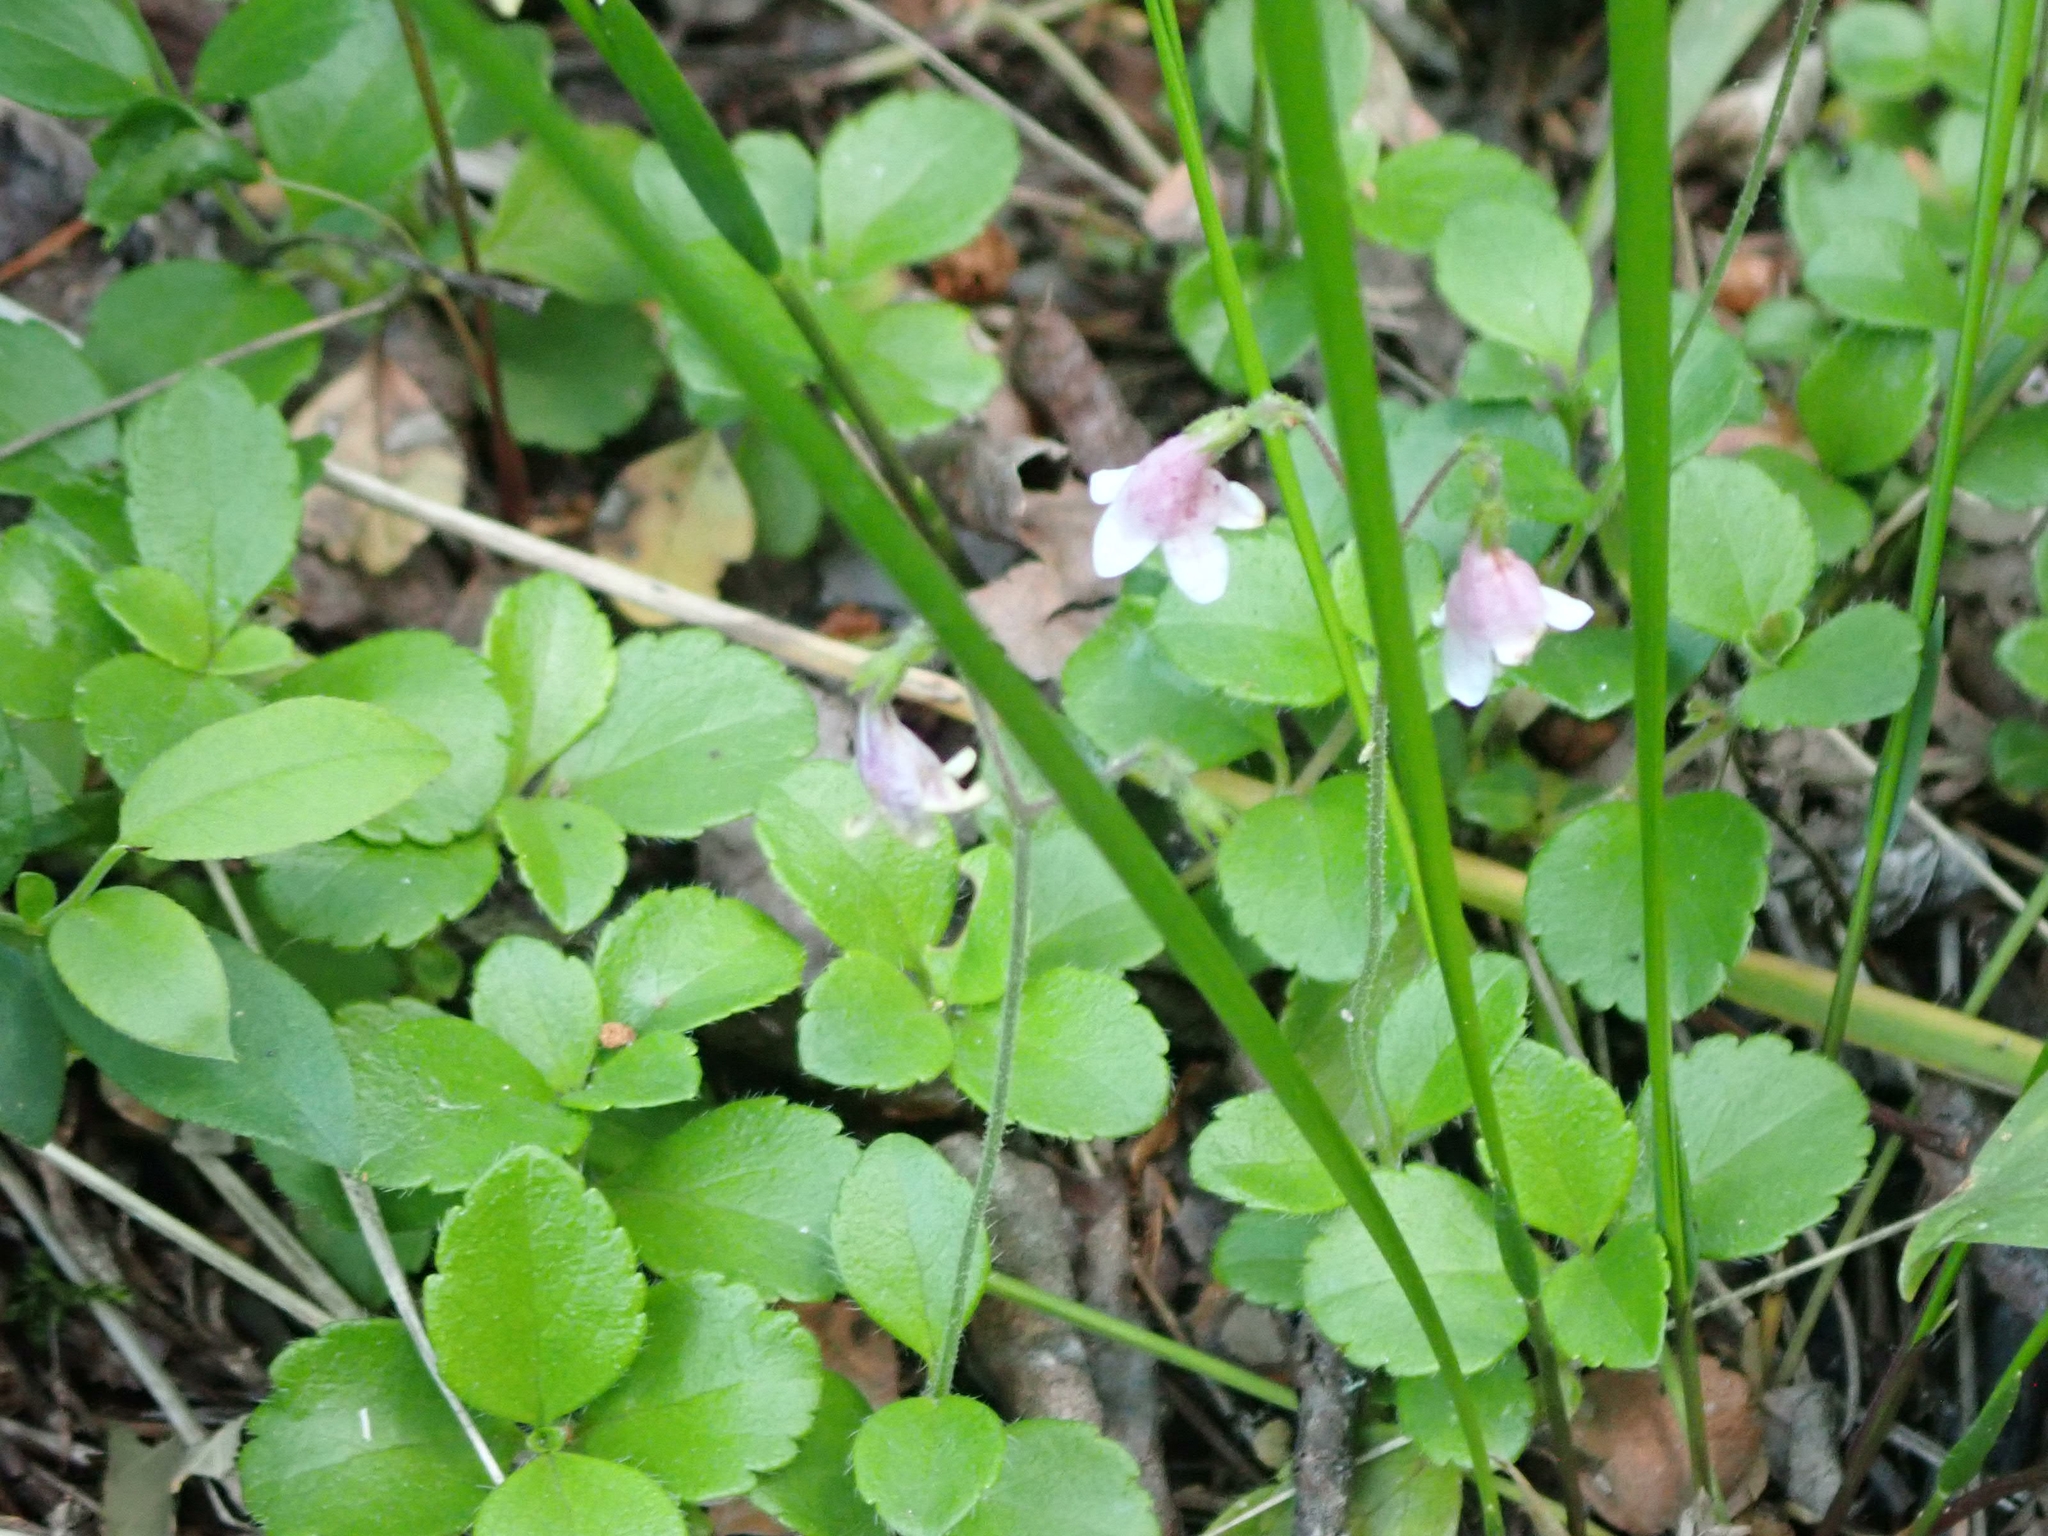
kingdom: Plantae
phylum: Tracheophyta
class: Magnoliopsida
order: Dipsacales
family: Caprifoliaceae
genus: Linnaea
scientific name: Linnaea borealis
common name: Twinflower
